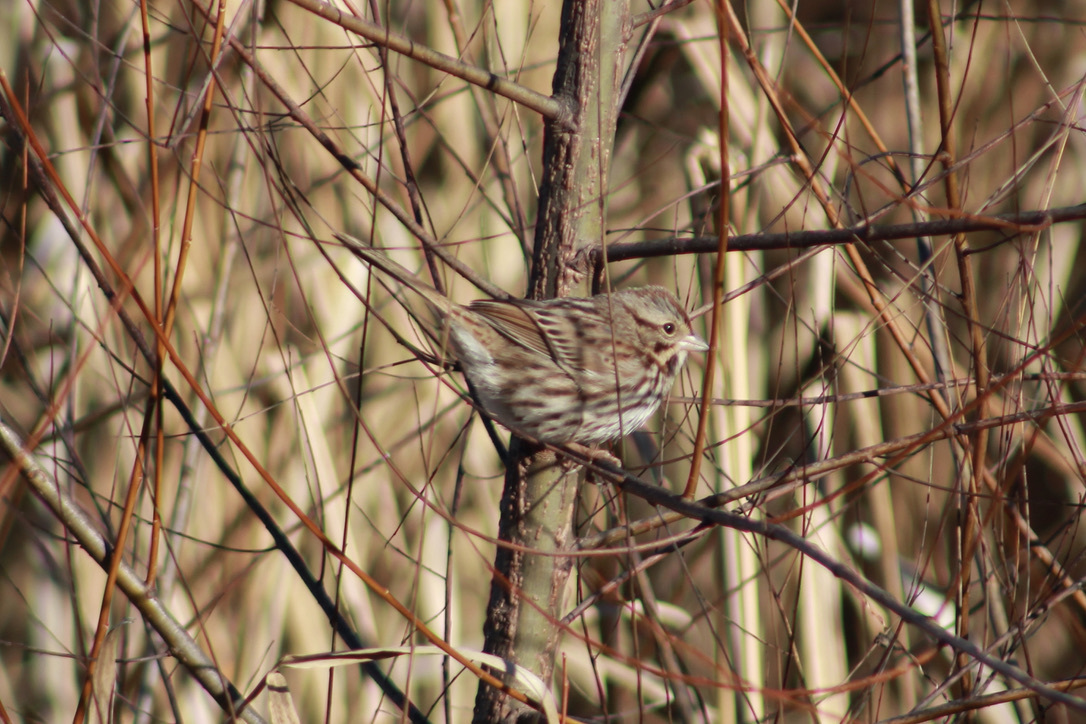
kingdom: Animalia
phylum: Chordata
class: Aves
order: Passeriformes
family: Passerellidae
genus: Melospiza
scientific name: Melospiza melodia
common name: Song sparrow
